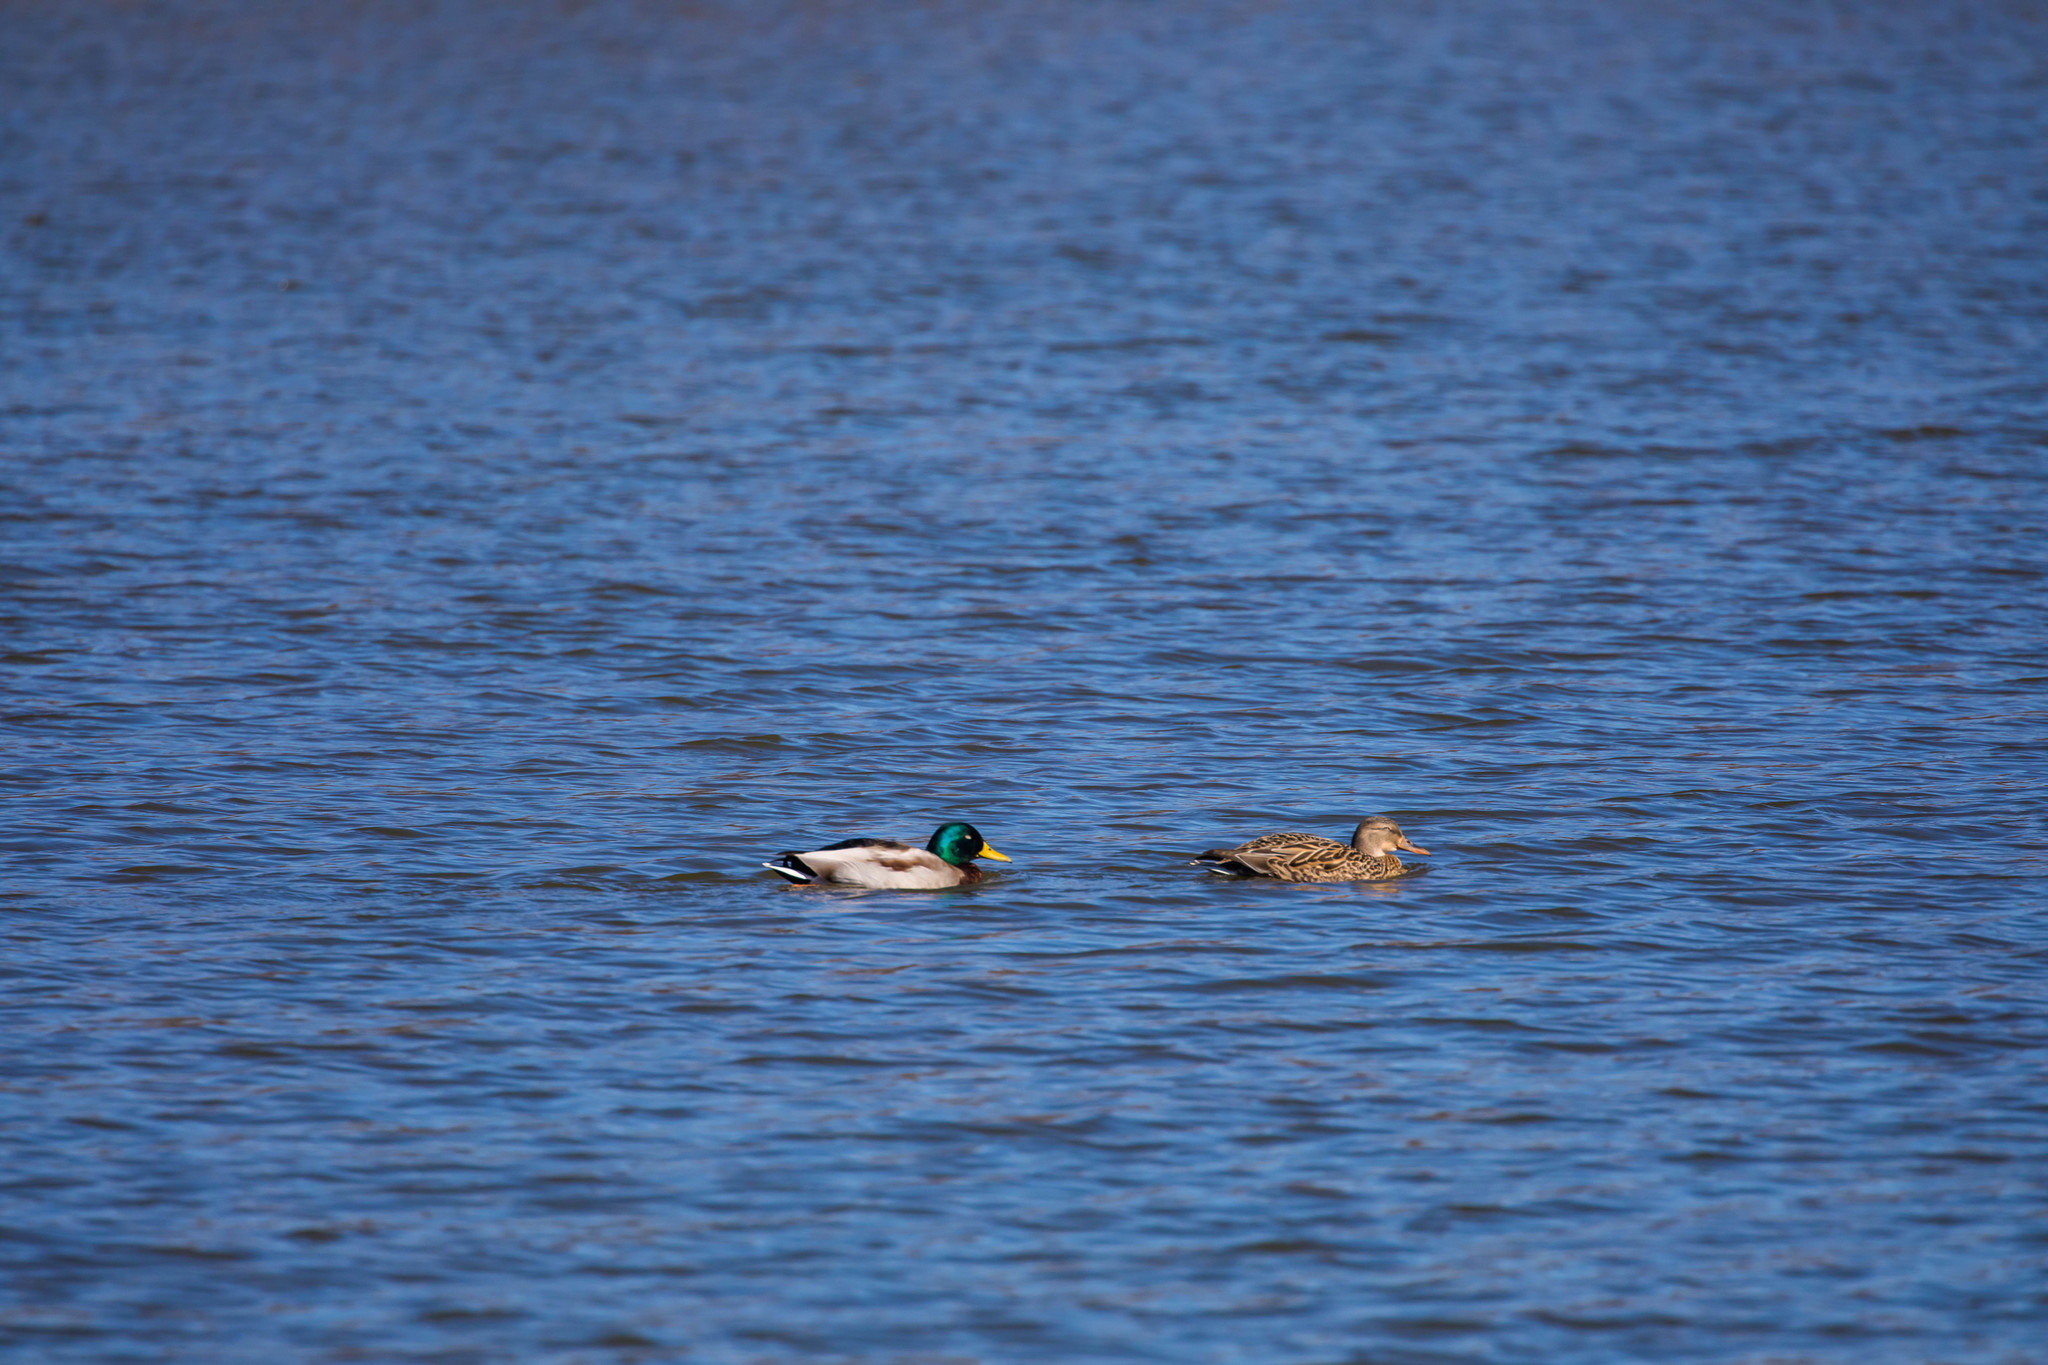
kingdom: Animalia
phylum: Chordata
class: Aves
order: Anseriformes
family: Anatidae
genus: Anas
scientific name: Anas platyrhynchos
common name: Mallard
